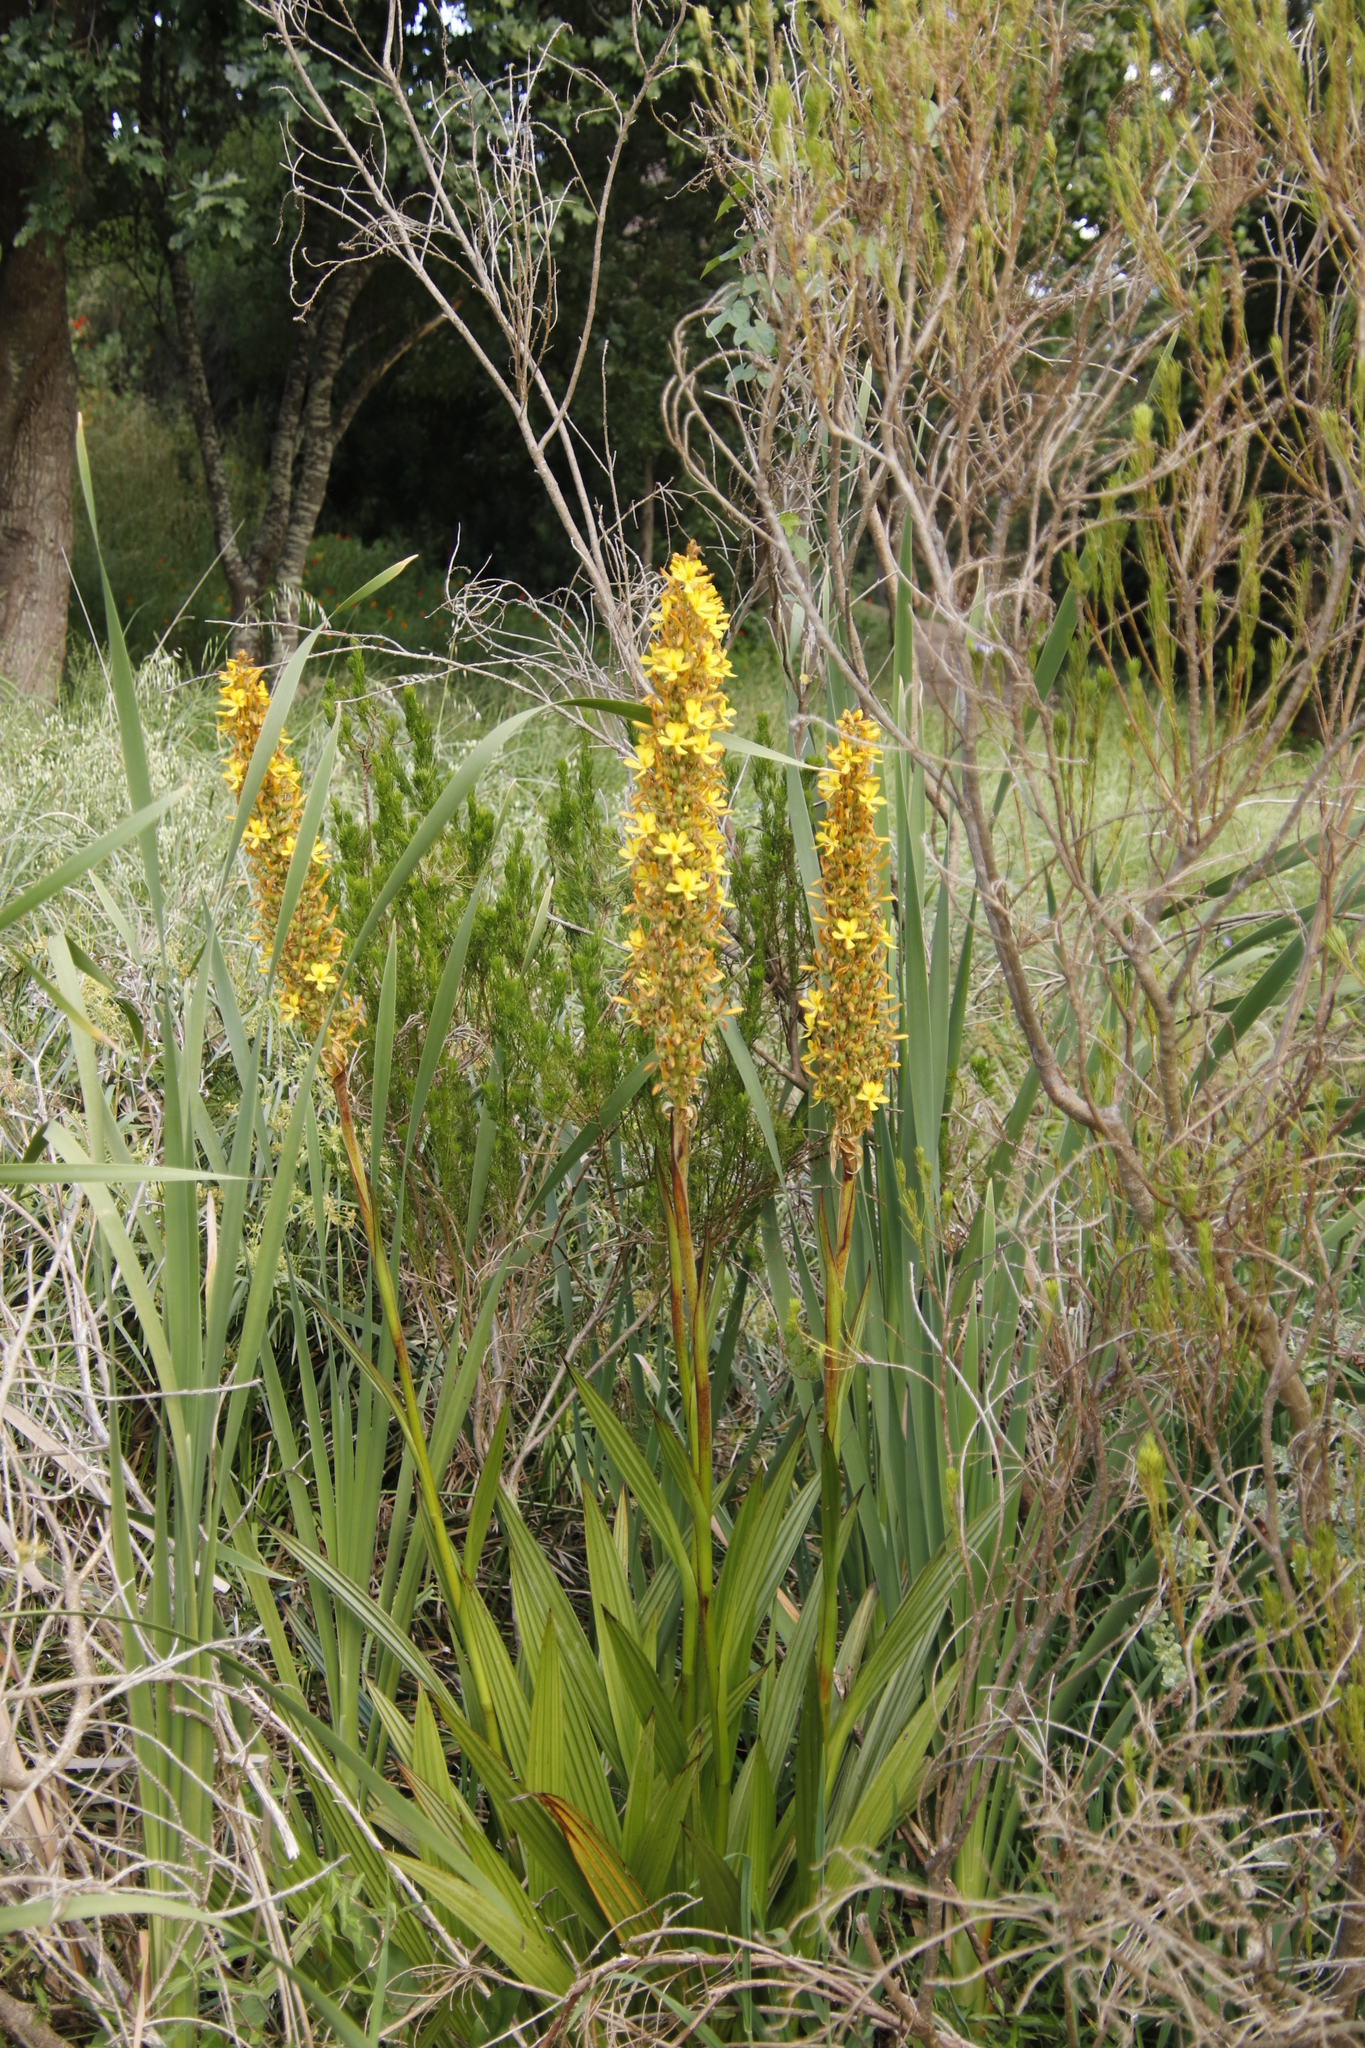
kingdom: Plantae
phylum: Tracheophyta
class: Liliopsida
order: Commelinales
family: Haemodoraceae
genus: Wachendorfia
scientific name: Wachendorfia thyrsiflora
